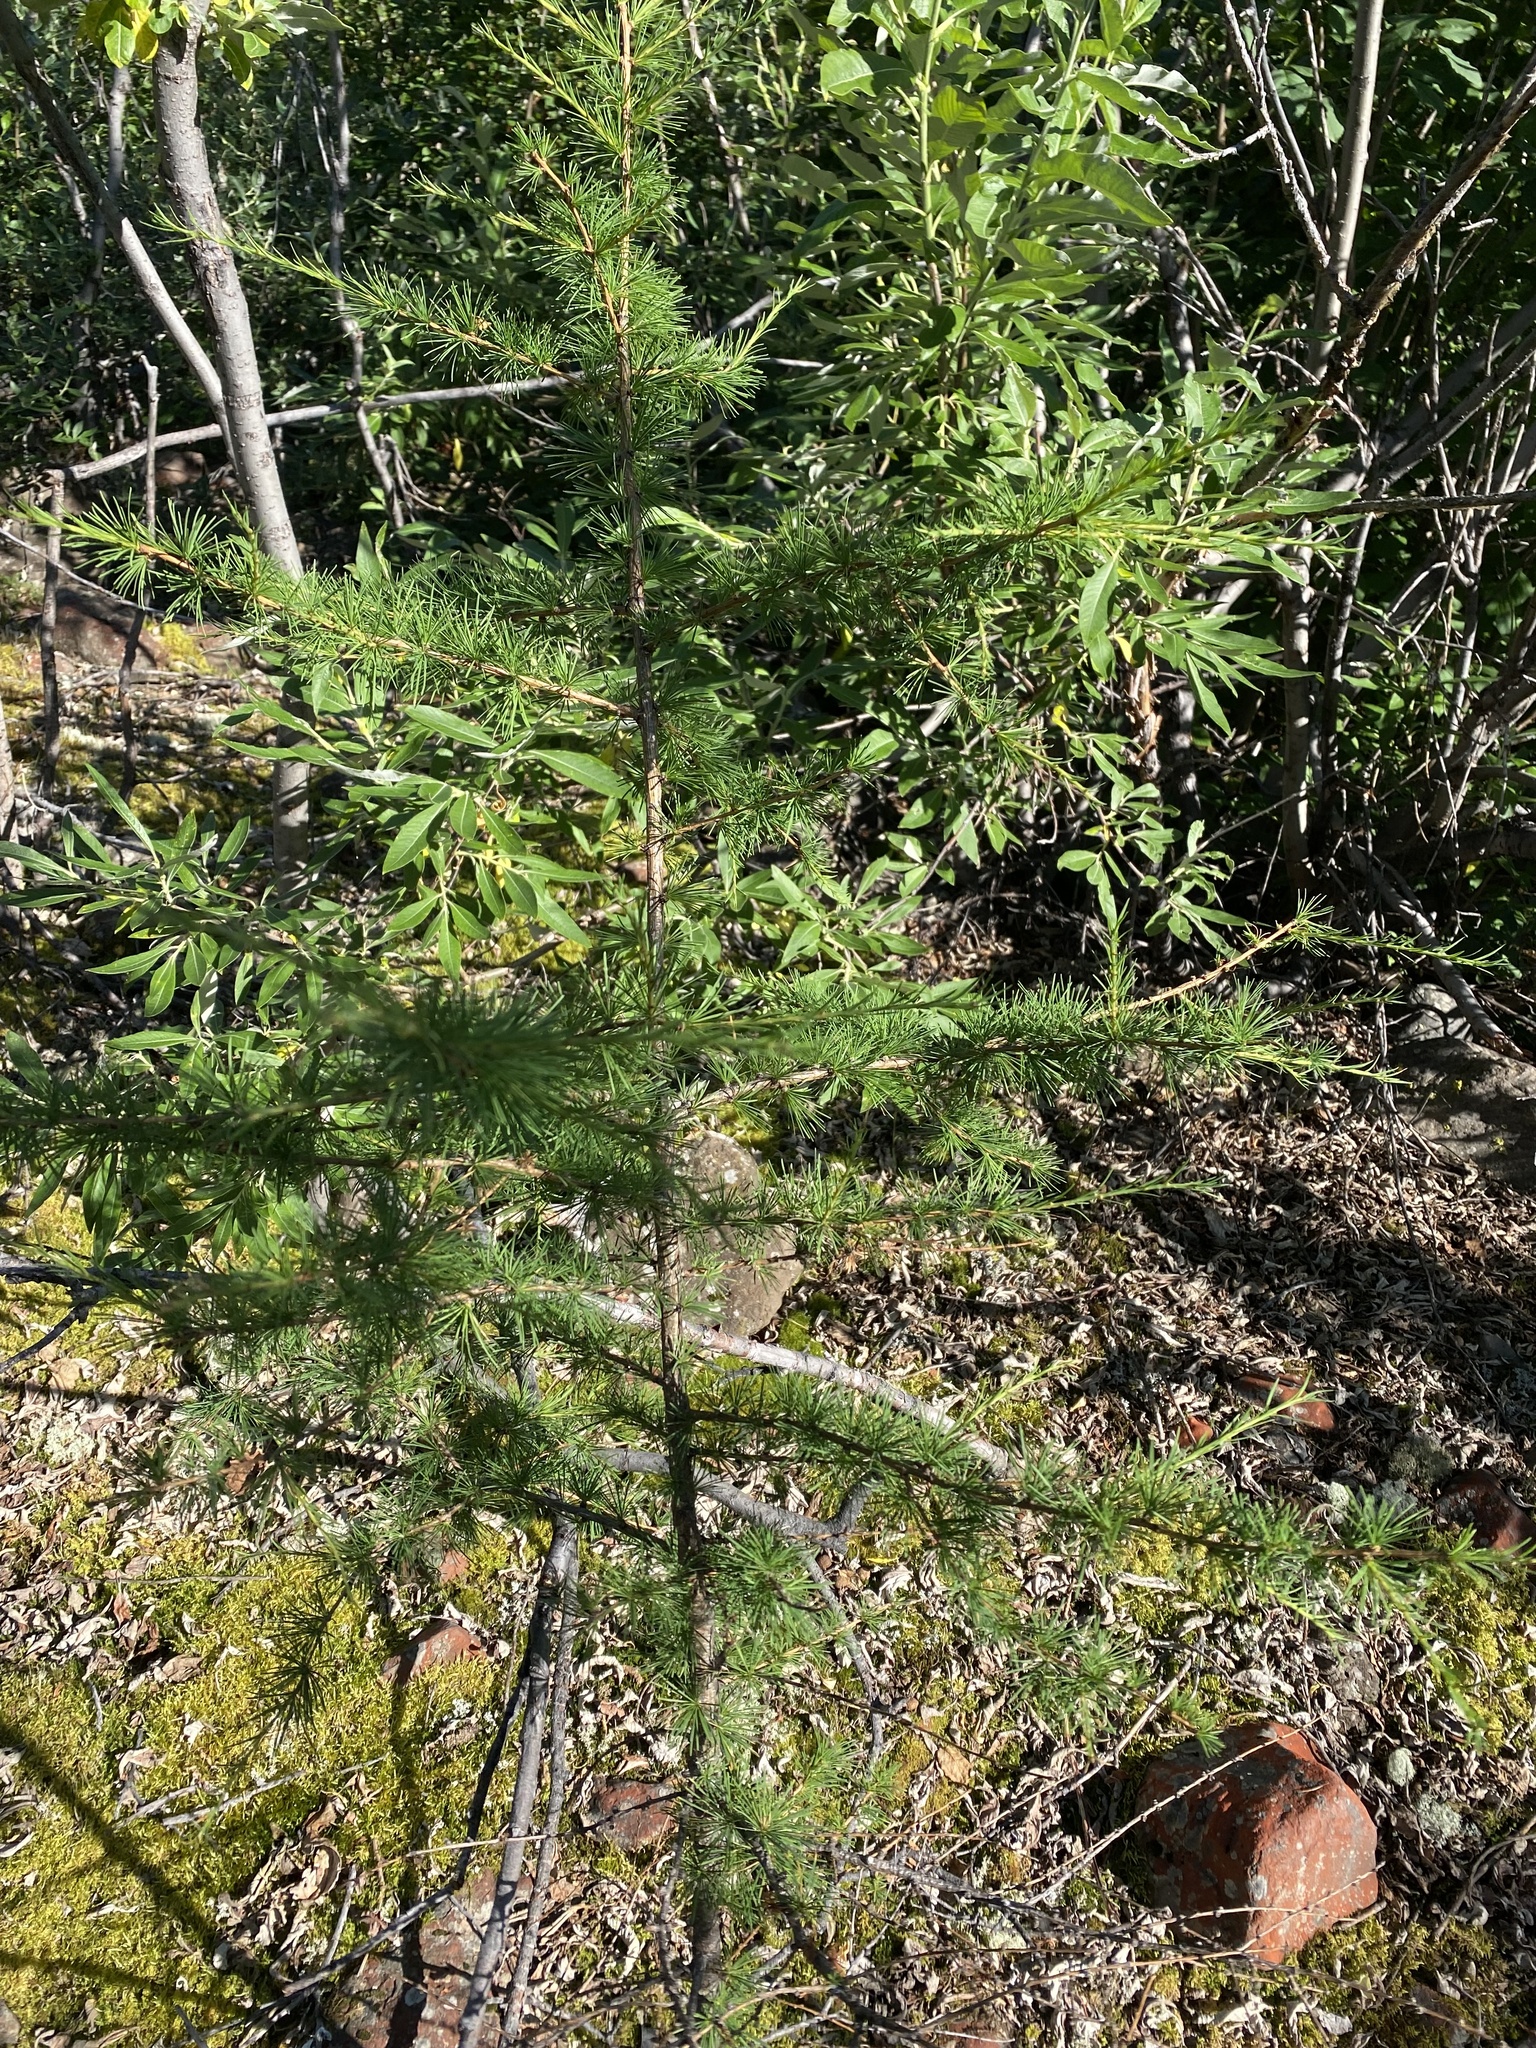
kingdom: Plantae
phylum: Tracheophyta
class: Pinopsida
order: Pinales
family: Pinaceae
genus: Larix
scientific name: Larix gmelinii
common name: Dahurian larch
